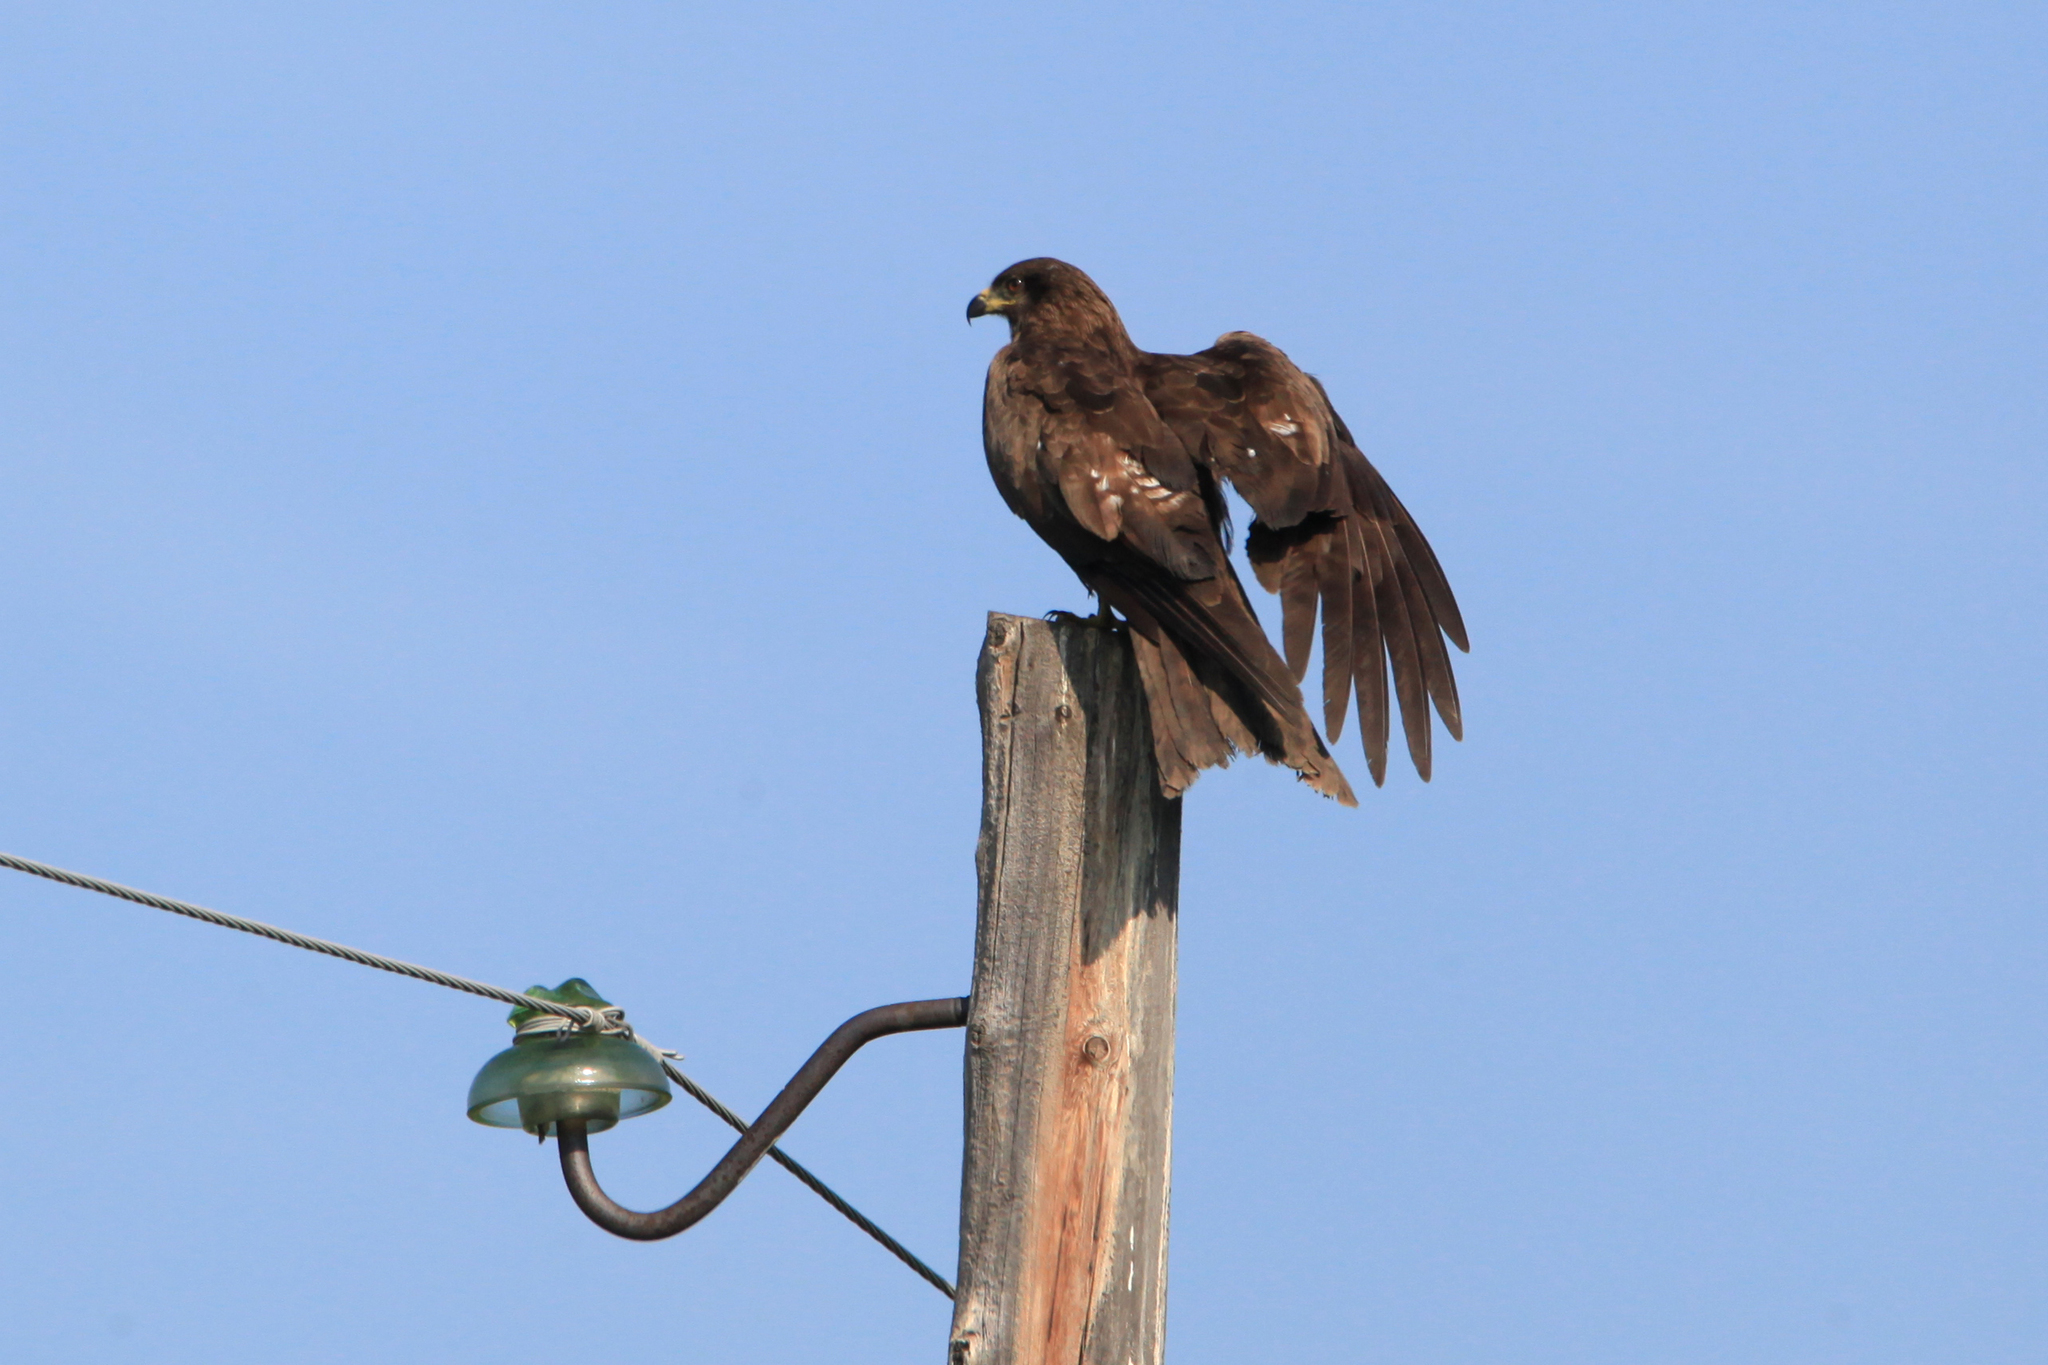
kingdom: Animalia
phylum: Chordata
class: Aves
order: Accipitriformes
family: Accipitridae
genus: Milvus
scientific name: Milvus migrans
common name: Black kite
